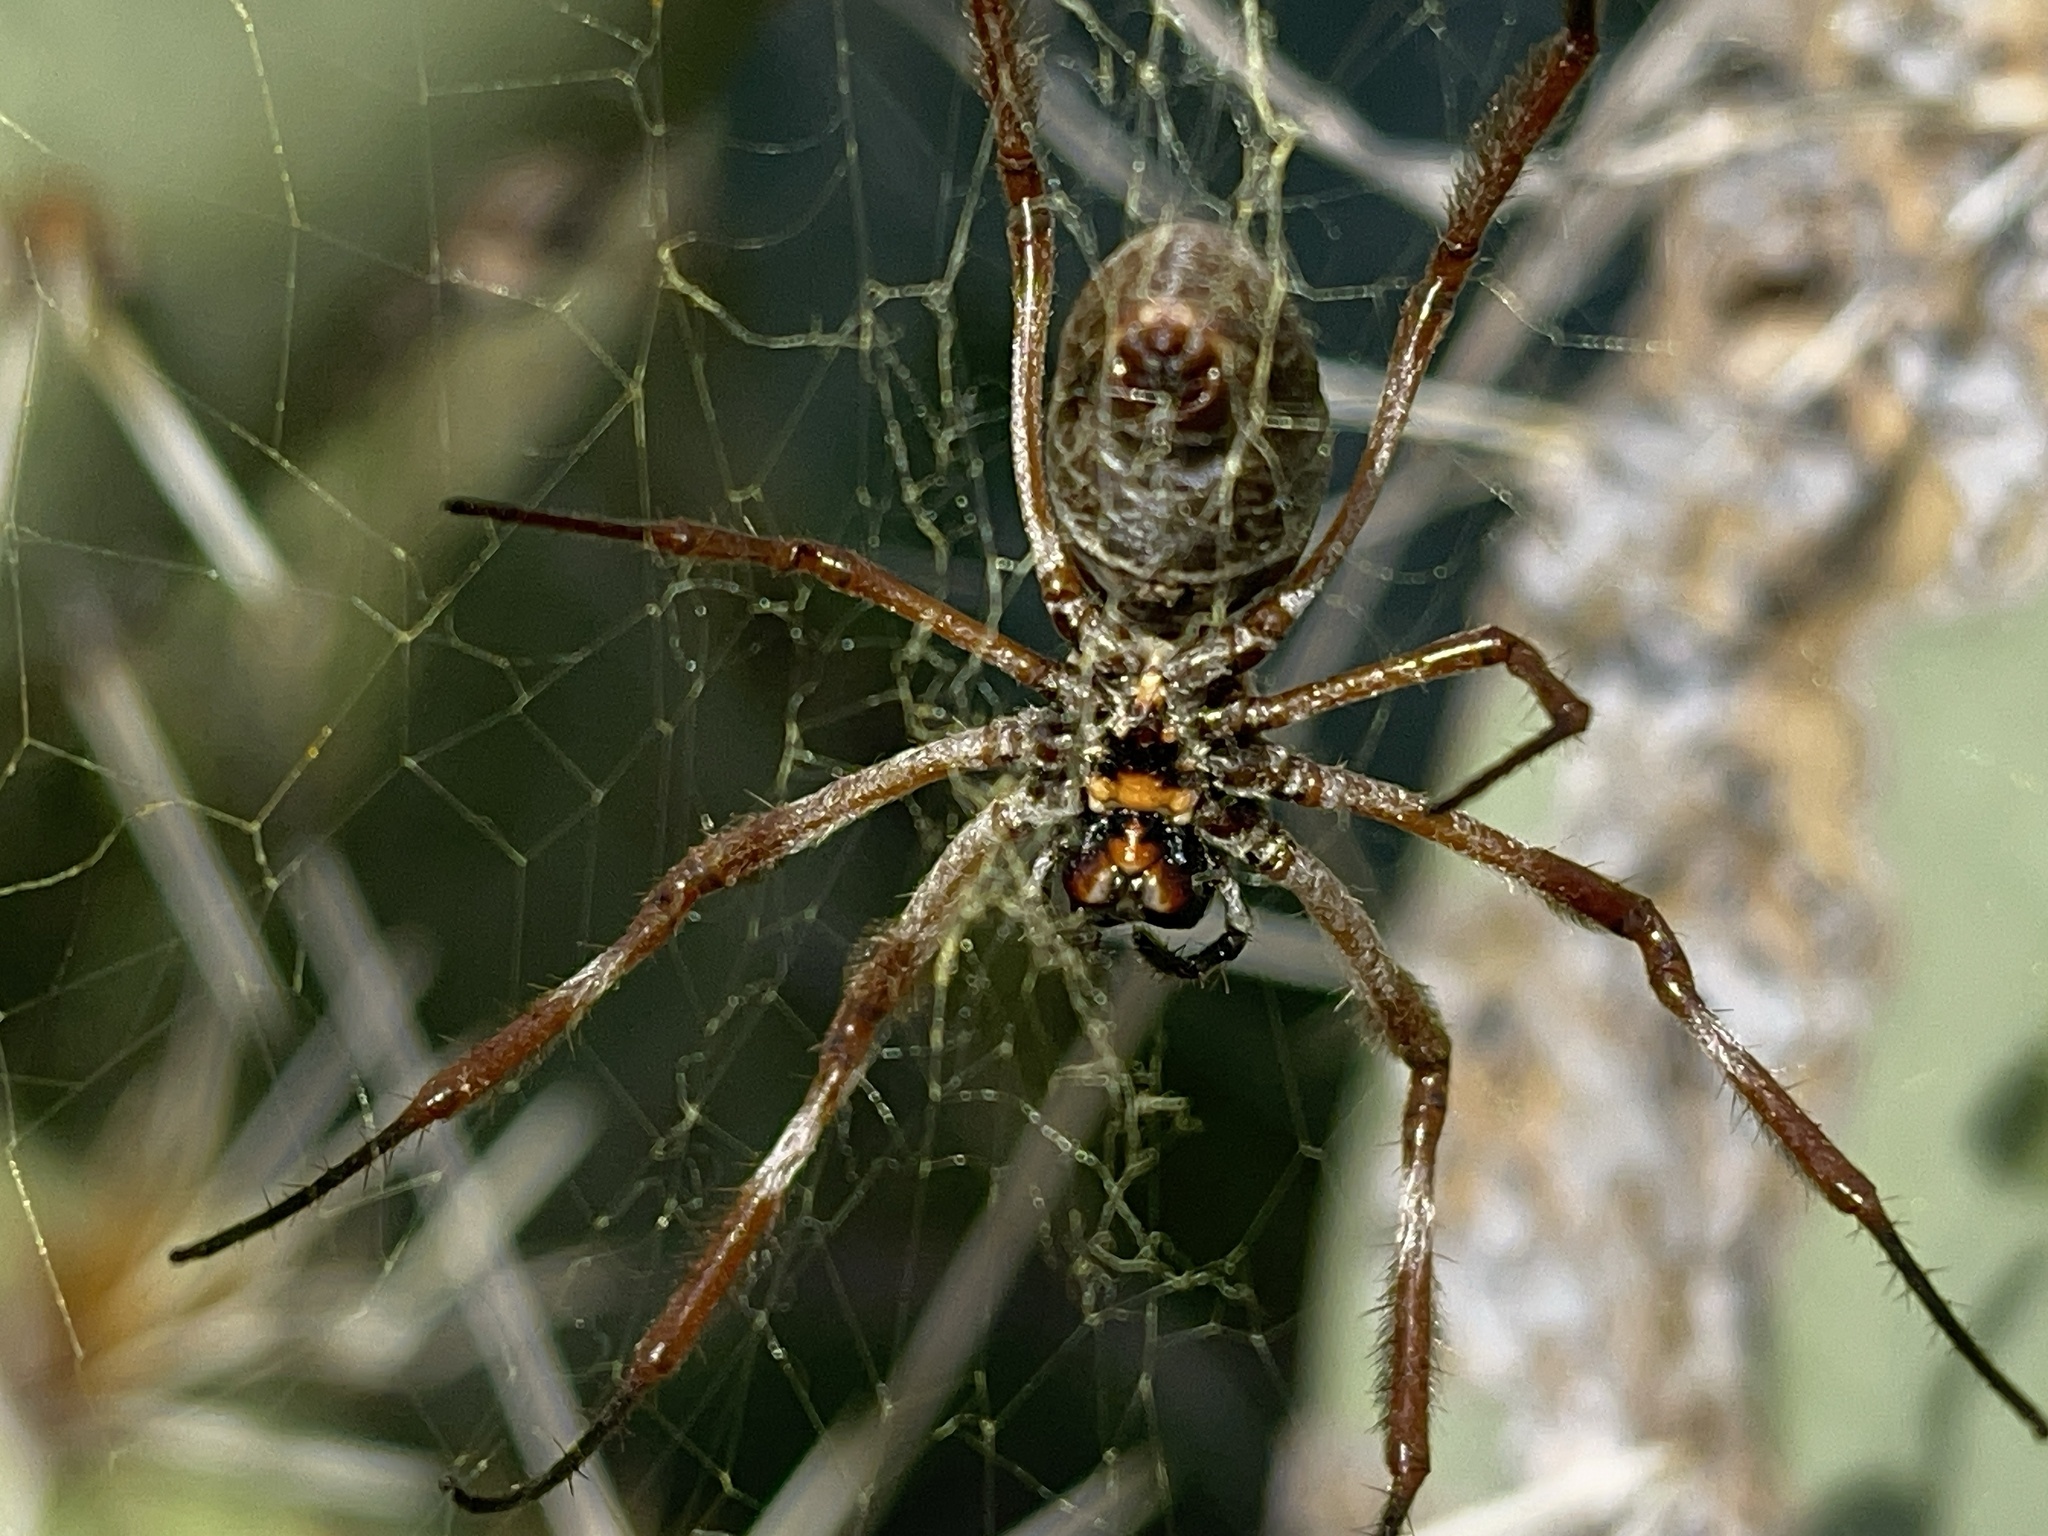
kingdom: Animalia
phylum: Arthropoda
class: Arachnida
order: Araneae
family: Araneidae
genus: Trichonephila
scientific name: Trichonephila edulis
